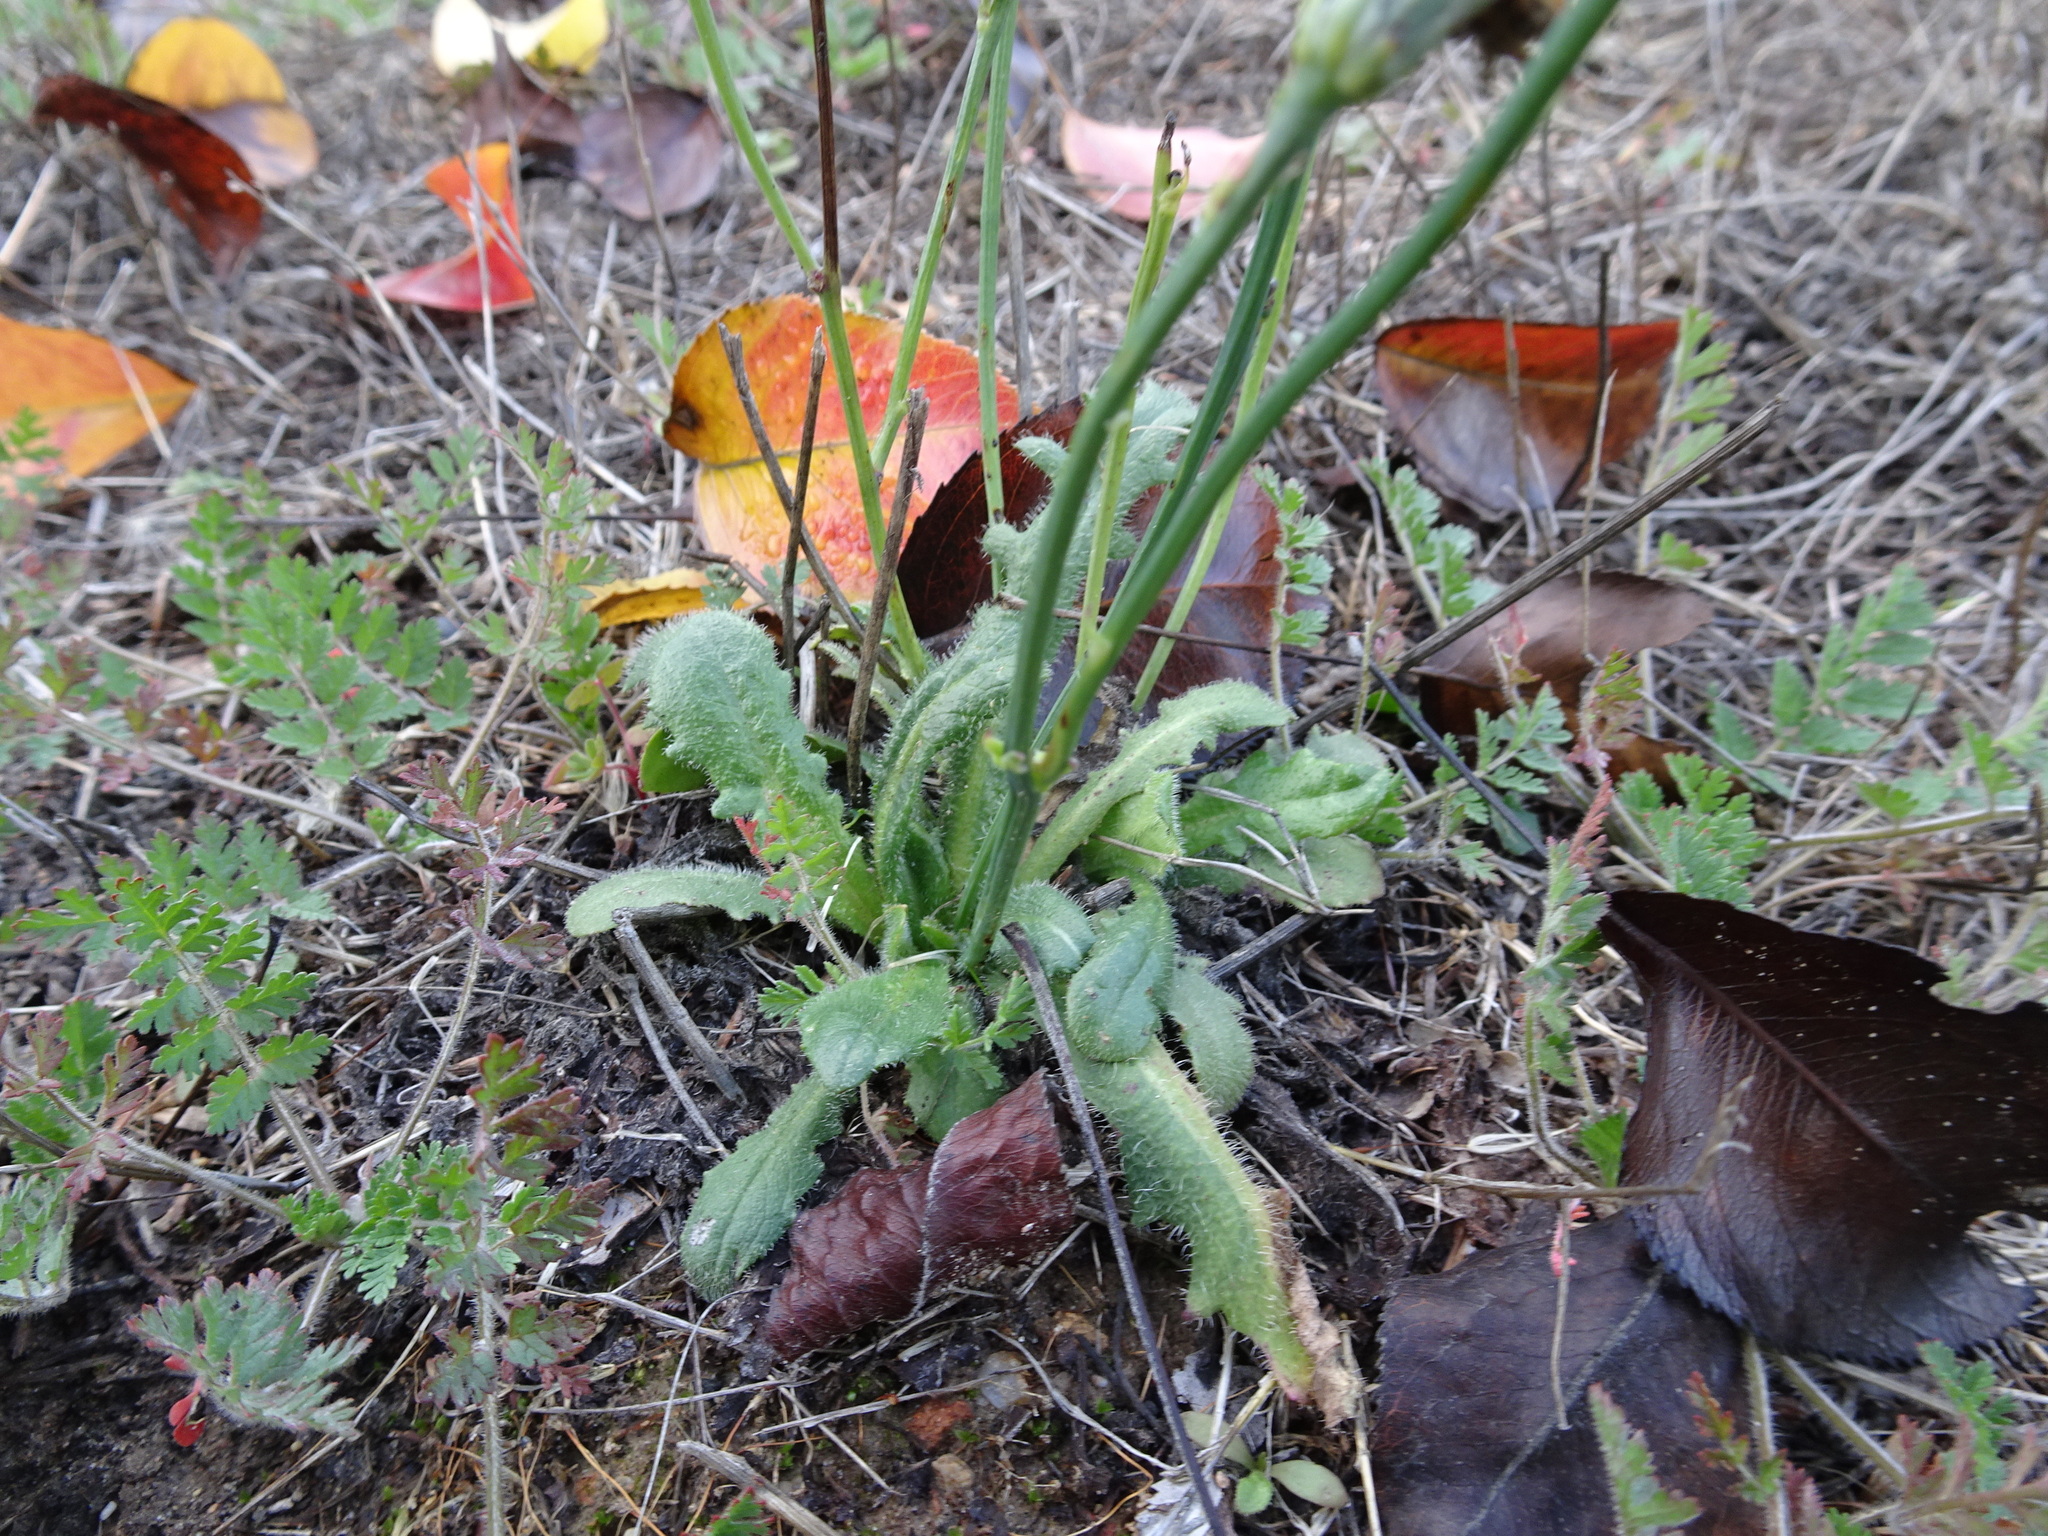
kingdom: Plantae
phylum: Tracheophyta
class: Magnoliopsida
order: Asterales
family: Asteraceae
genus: Hypochaeris
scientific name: Hypochaeris radicata
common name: Flatweed
